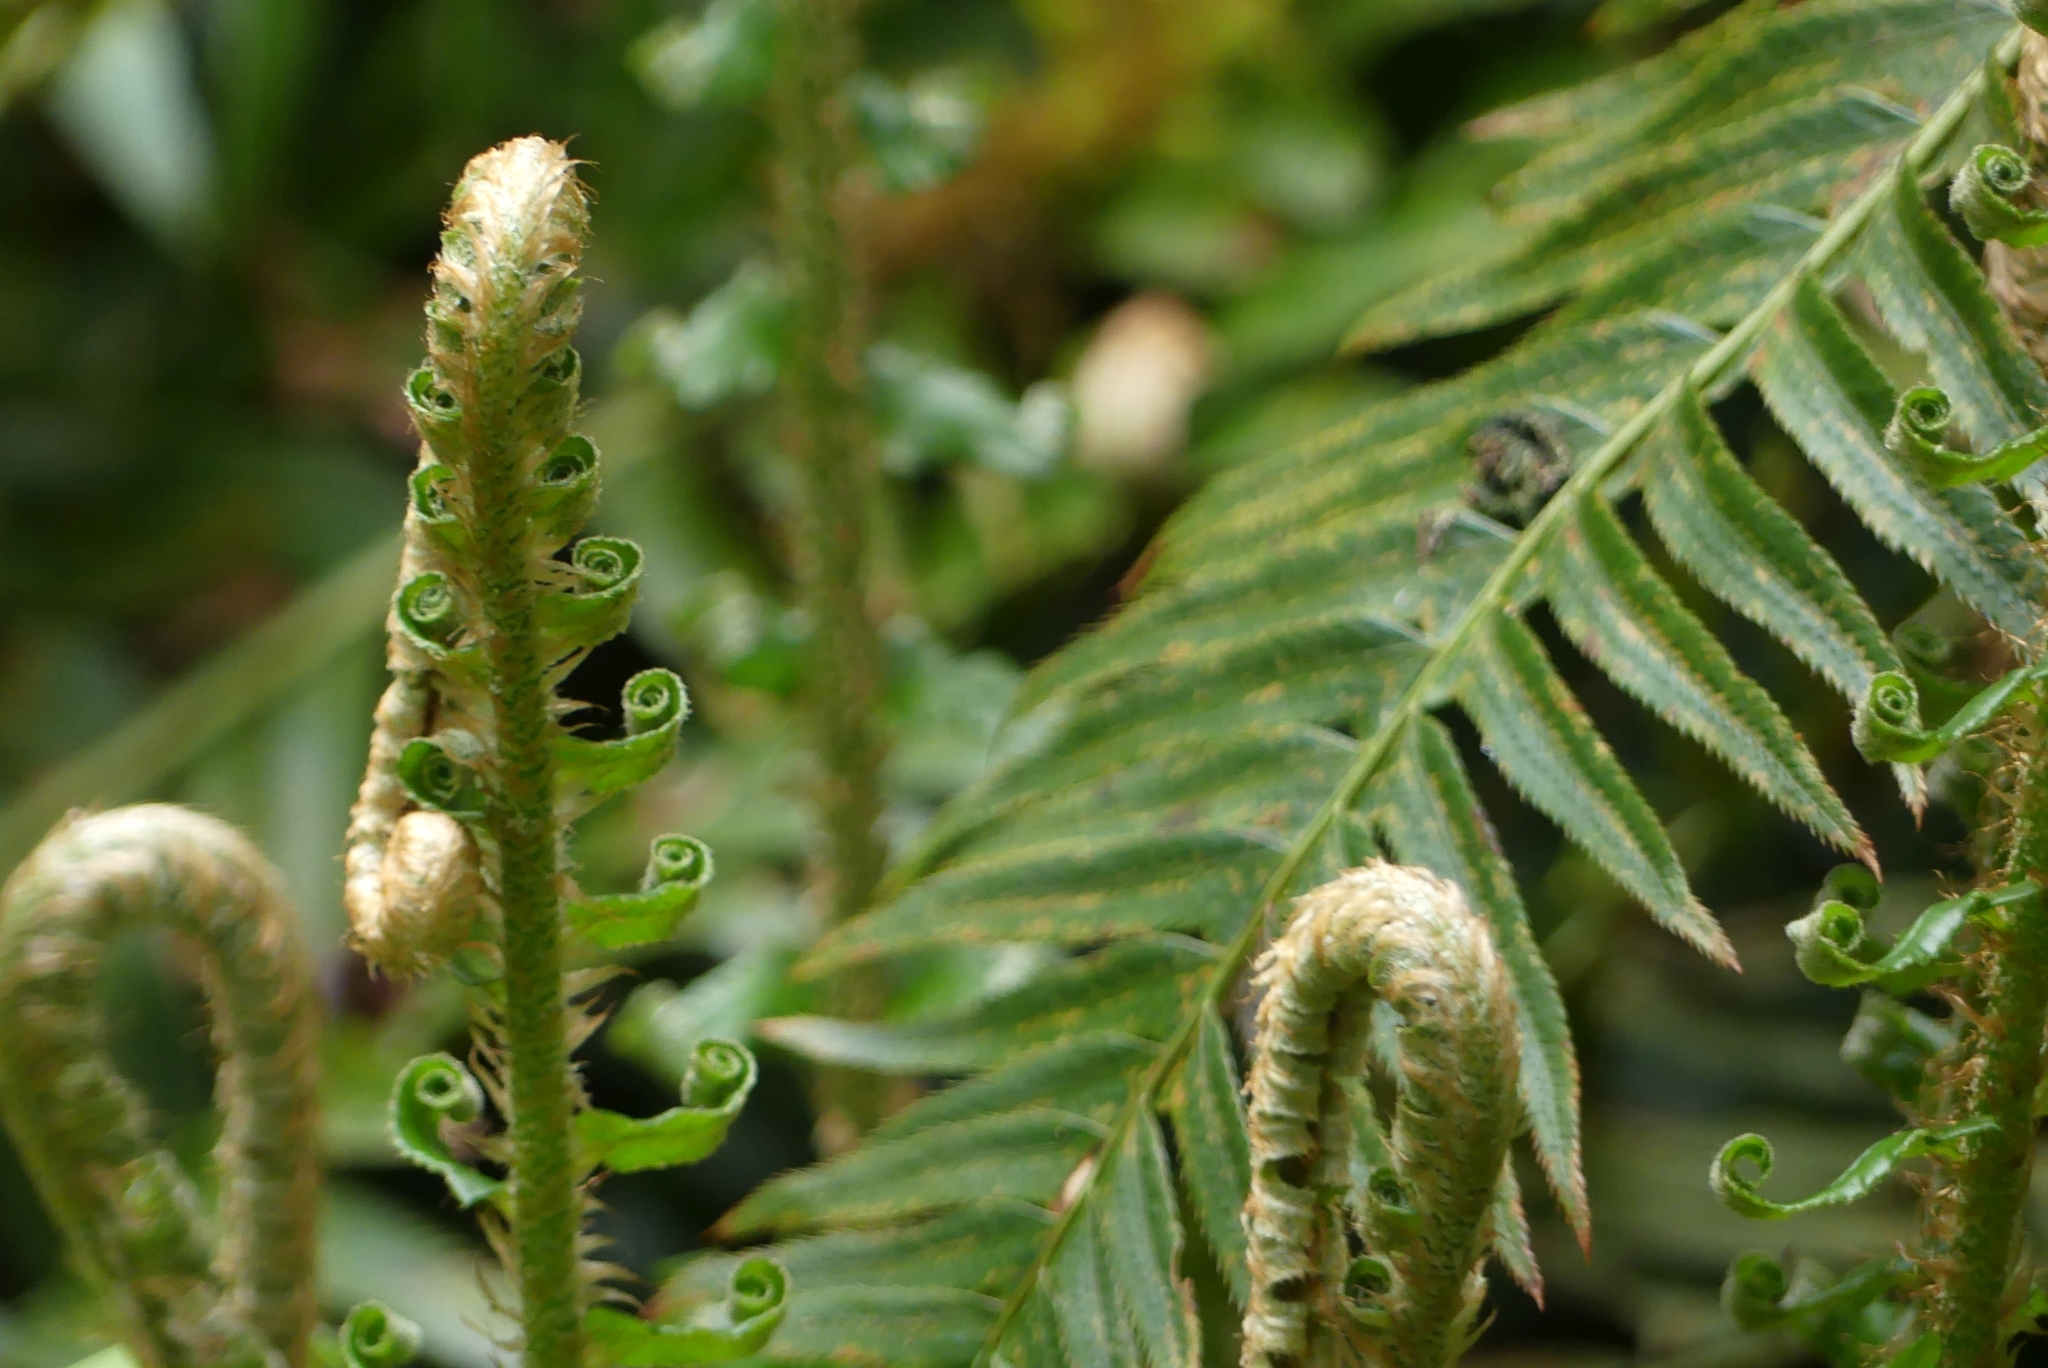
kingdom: Plantae
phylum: Tracheophyta
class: Polypodiopsida
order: Polypodiales
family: Dryopteridaceae
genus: Polystichum
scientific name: Polystichum munitum
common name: Western sword-fern
